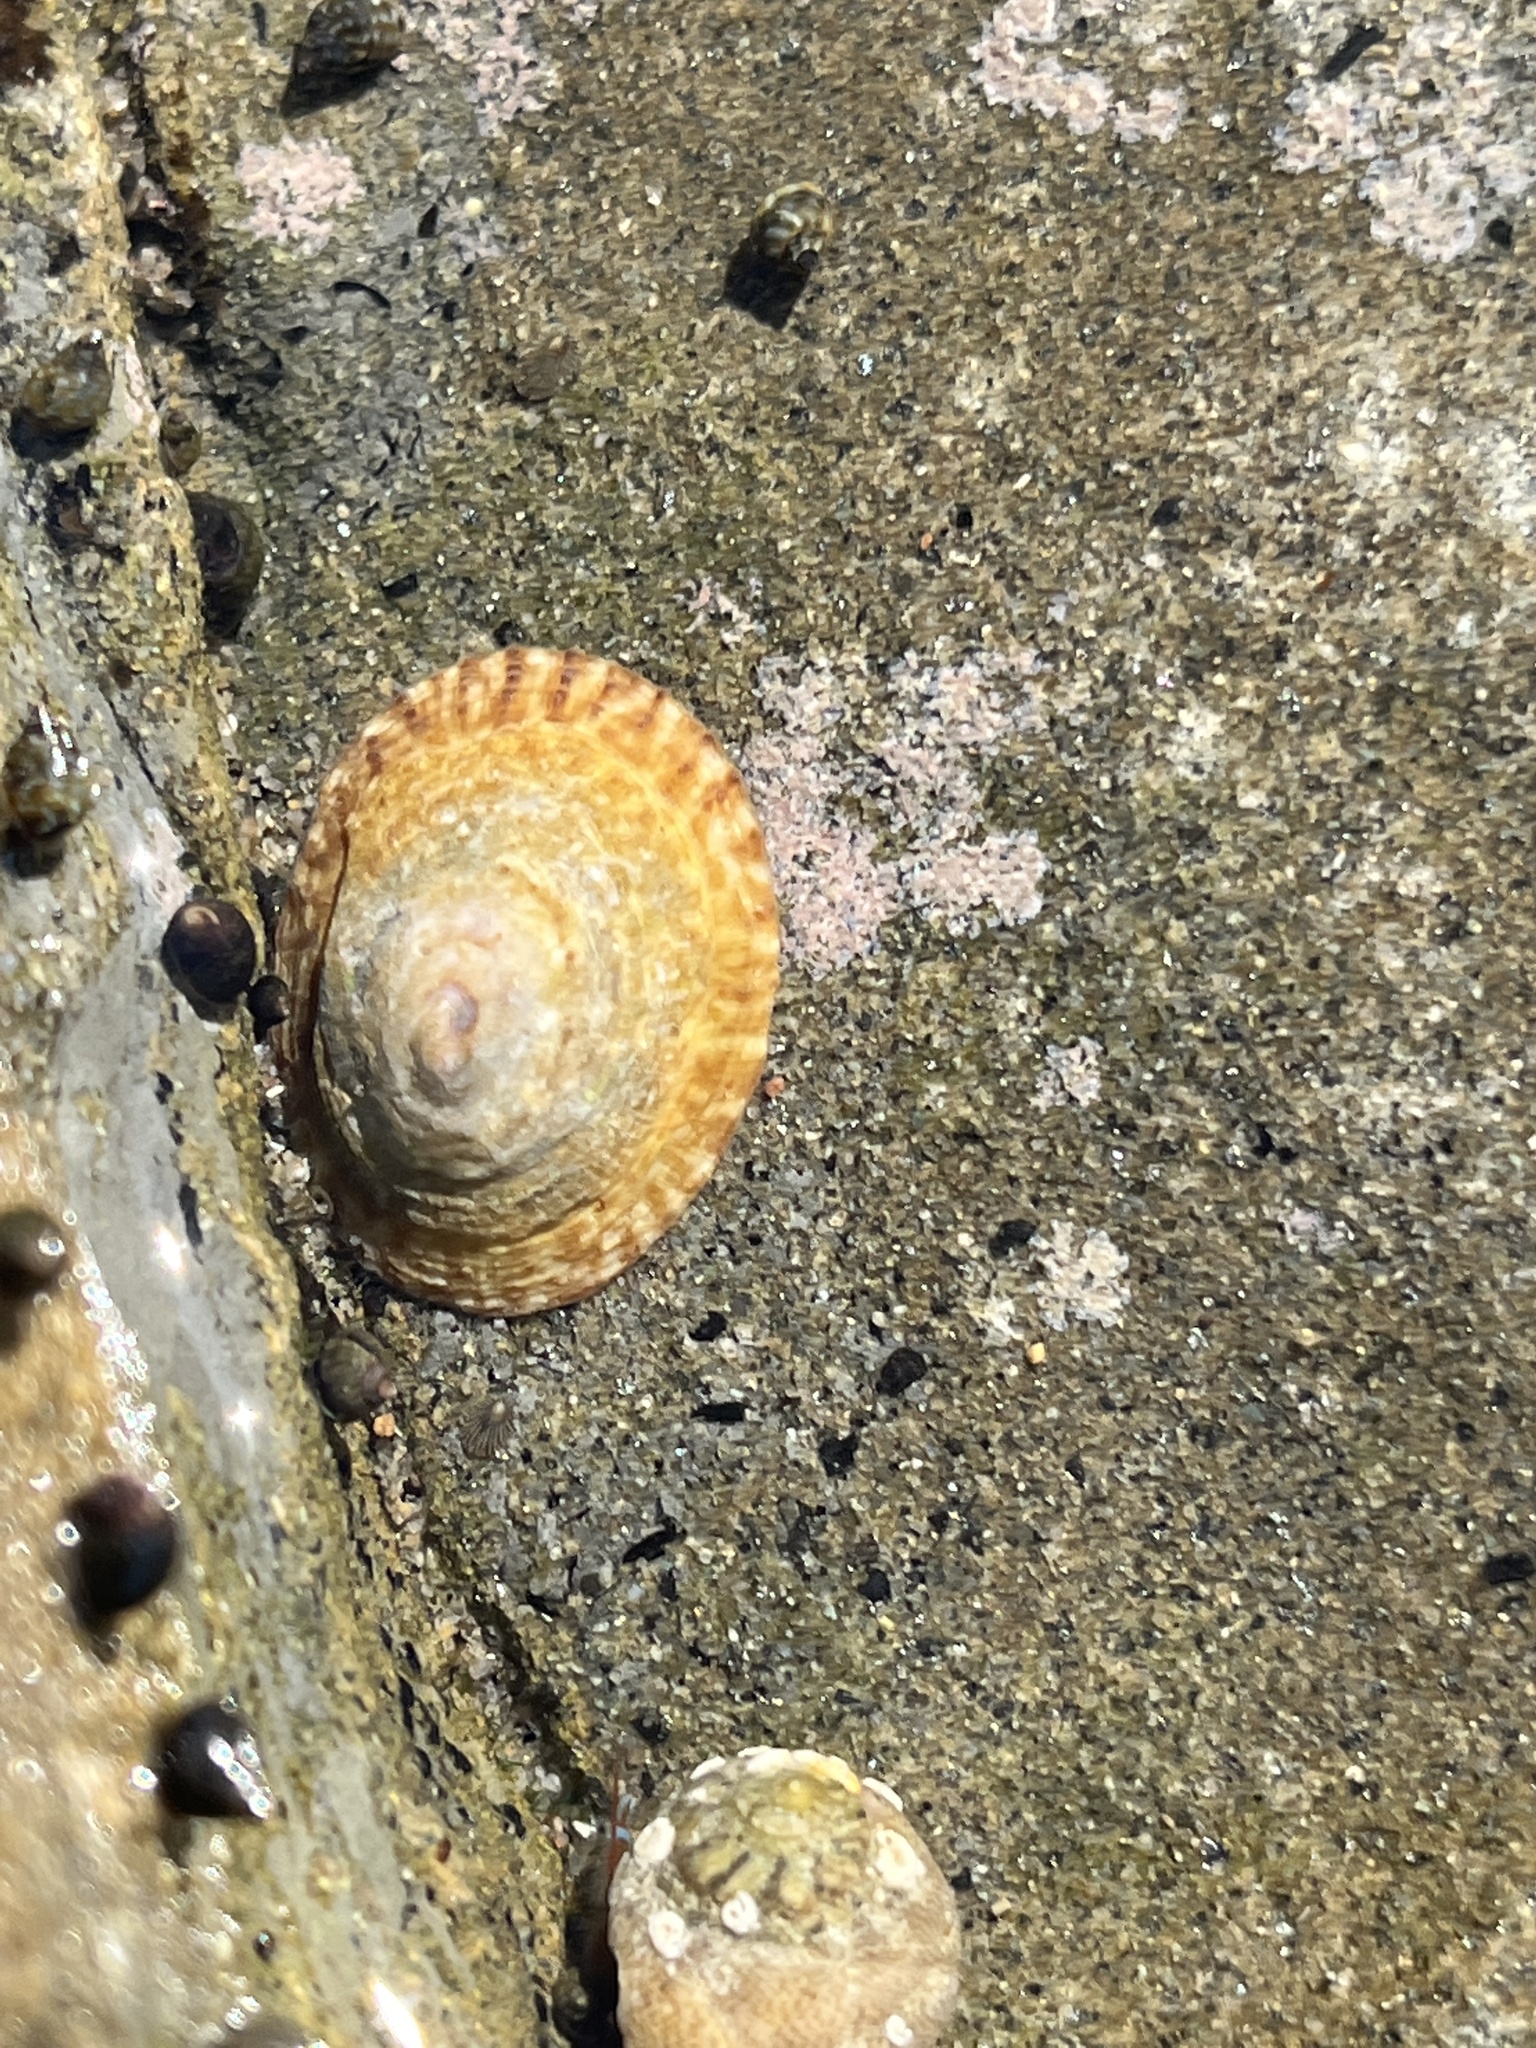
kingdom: Animalia
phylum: Mollusca
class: Gastropoda
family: Lottiidae
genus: Lottia
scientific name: Lottia limatula
